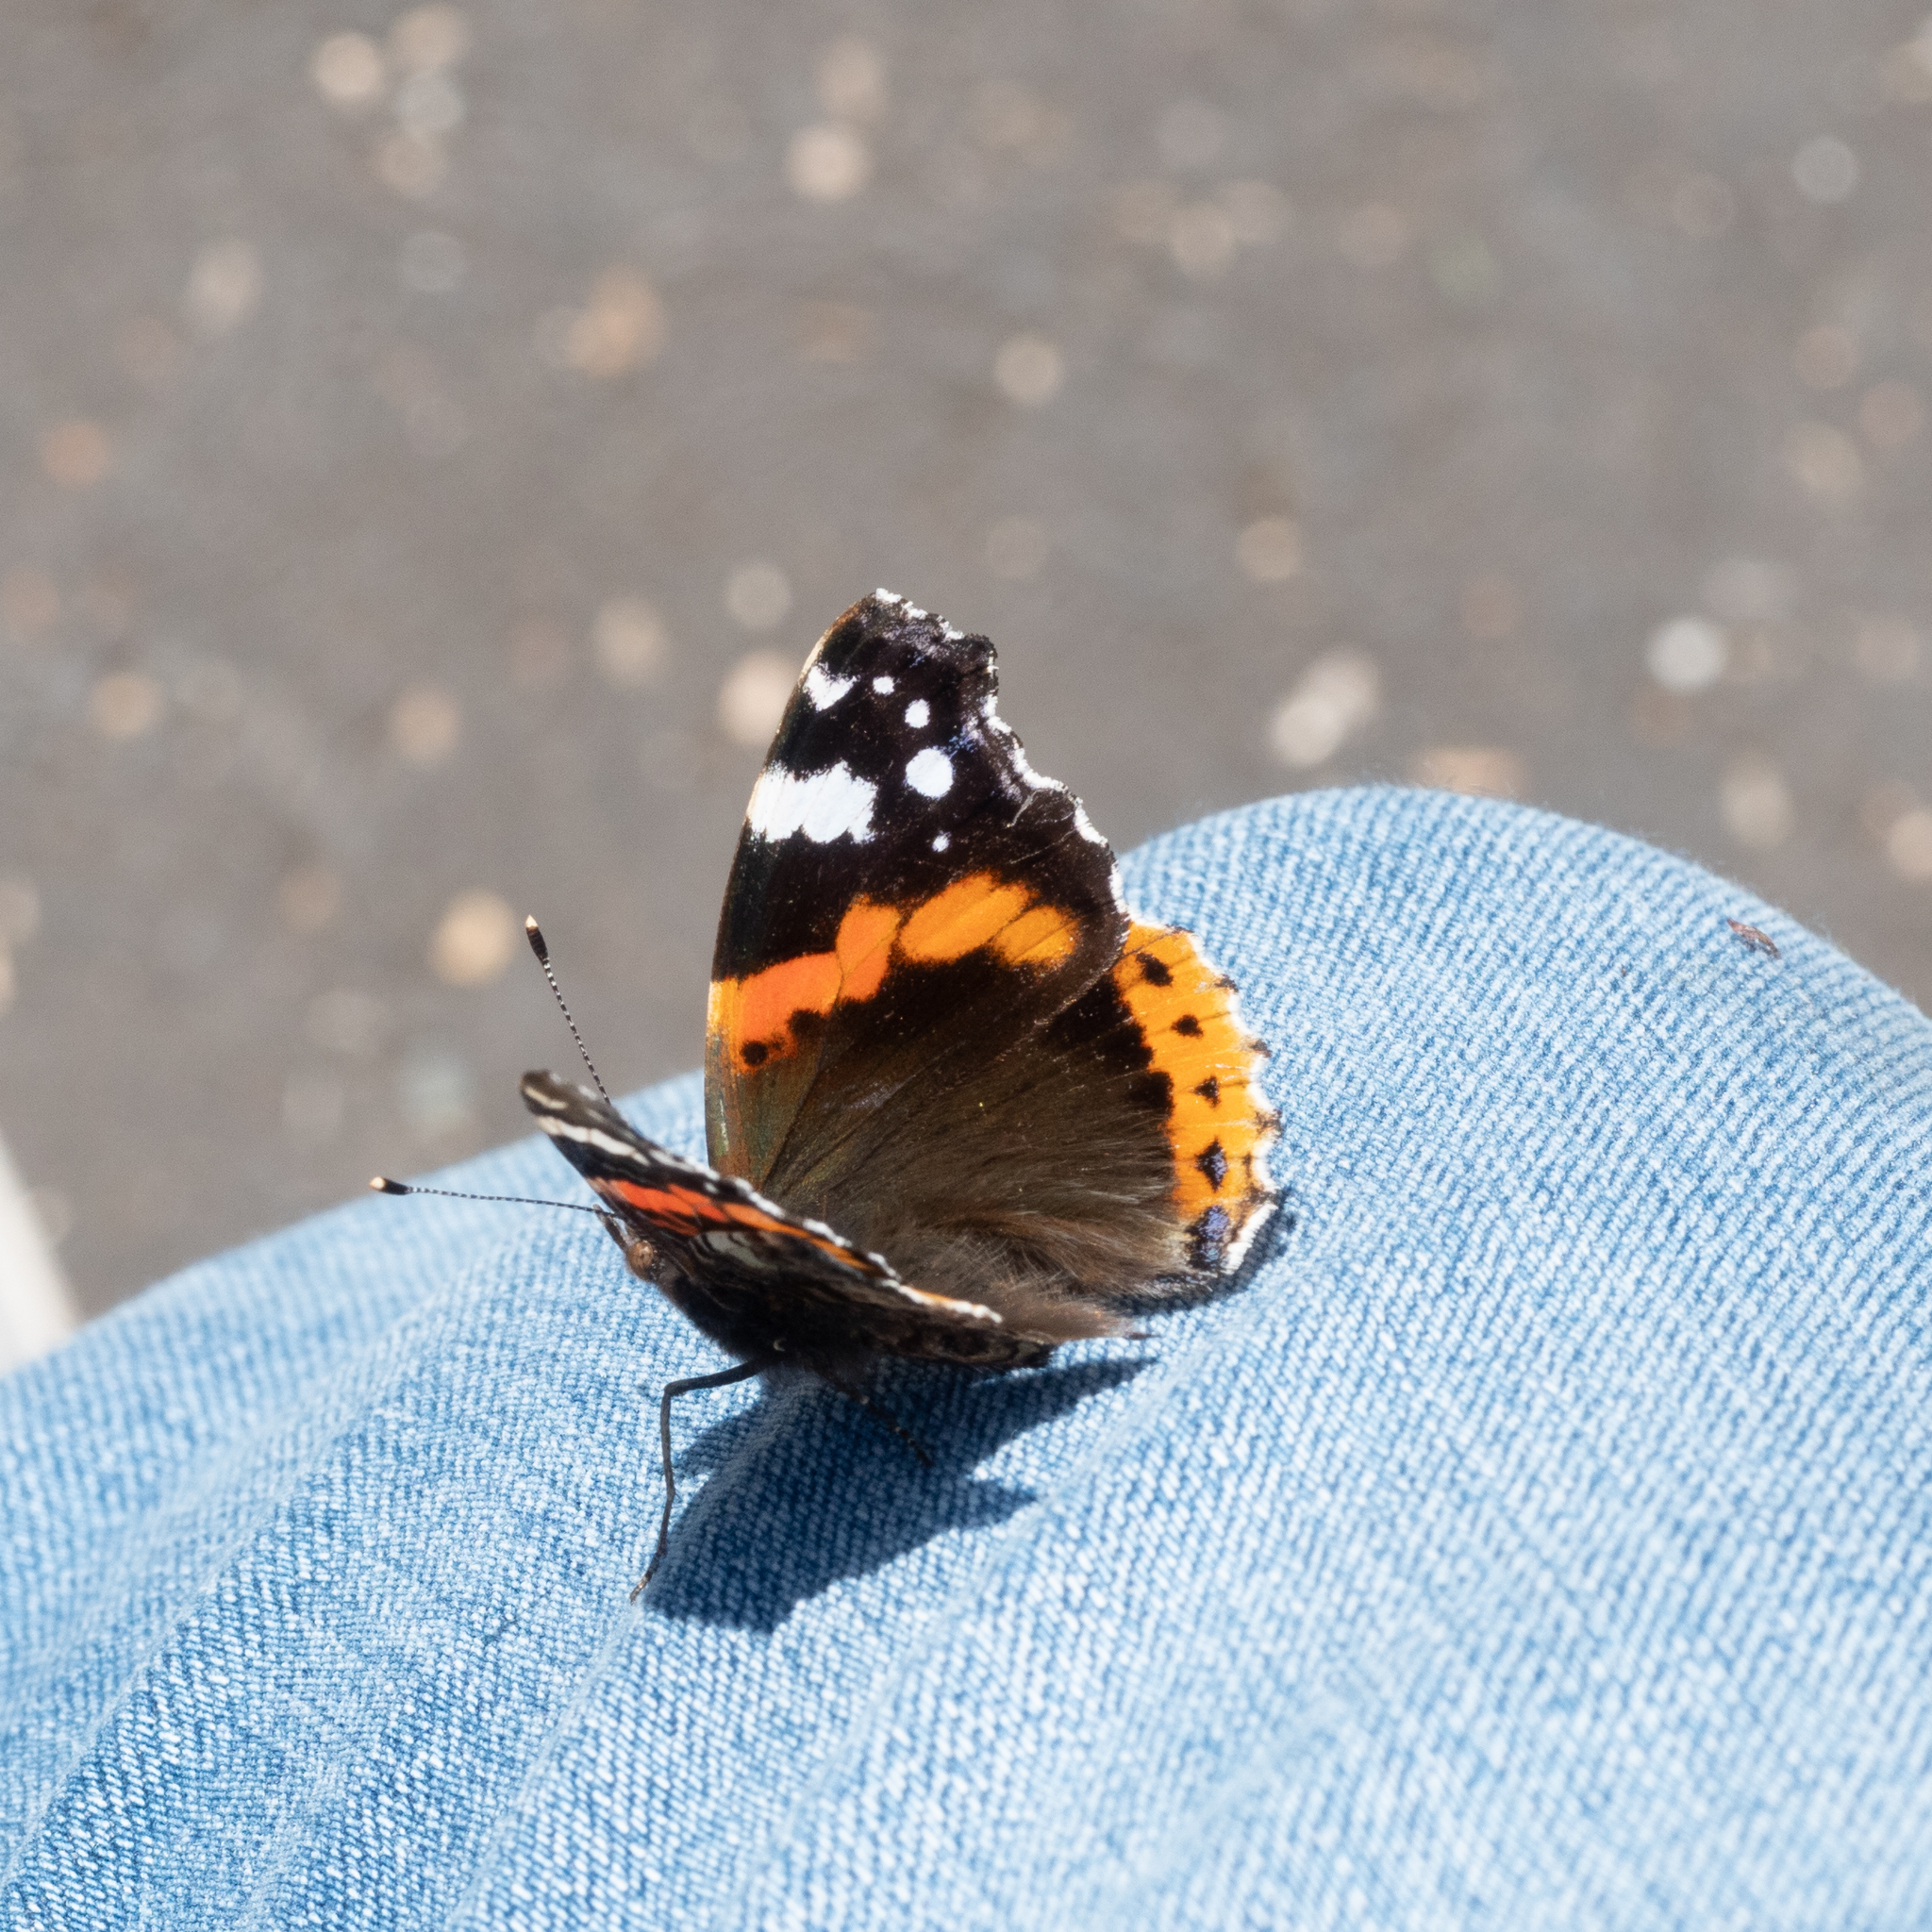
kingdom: Animalia
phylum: Arthropoda
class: Insecta
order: Lepidoptera
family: Nymphalidae
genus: Vanessa
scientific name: Vanessa atalanta
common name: Red admiral
